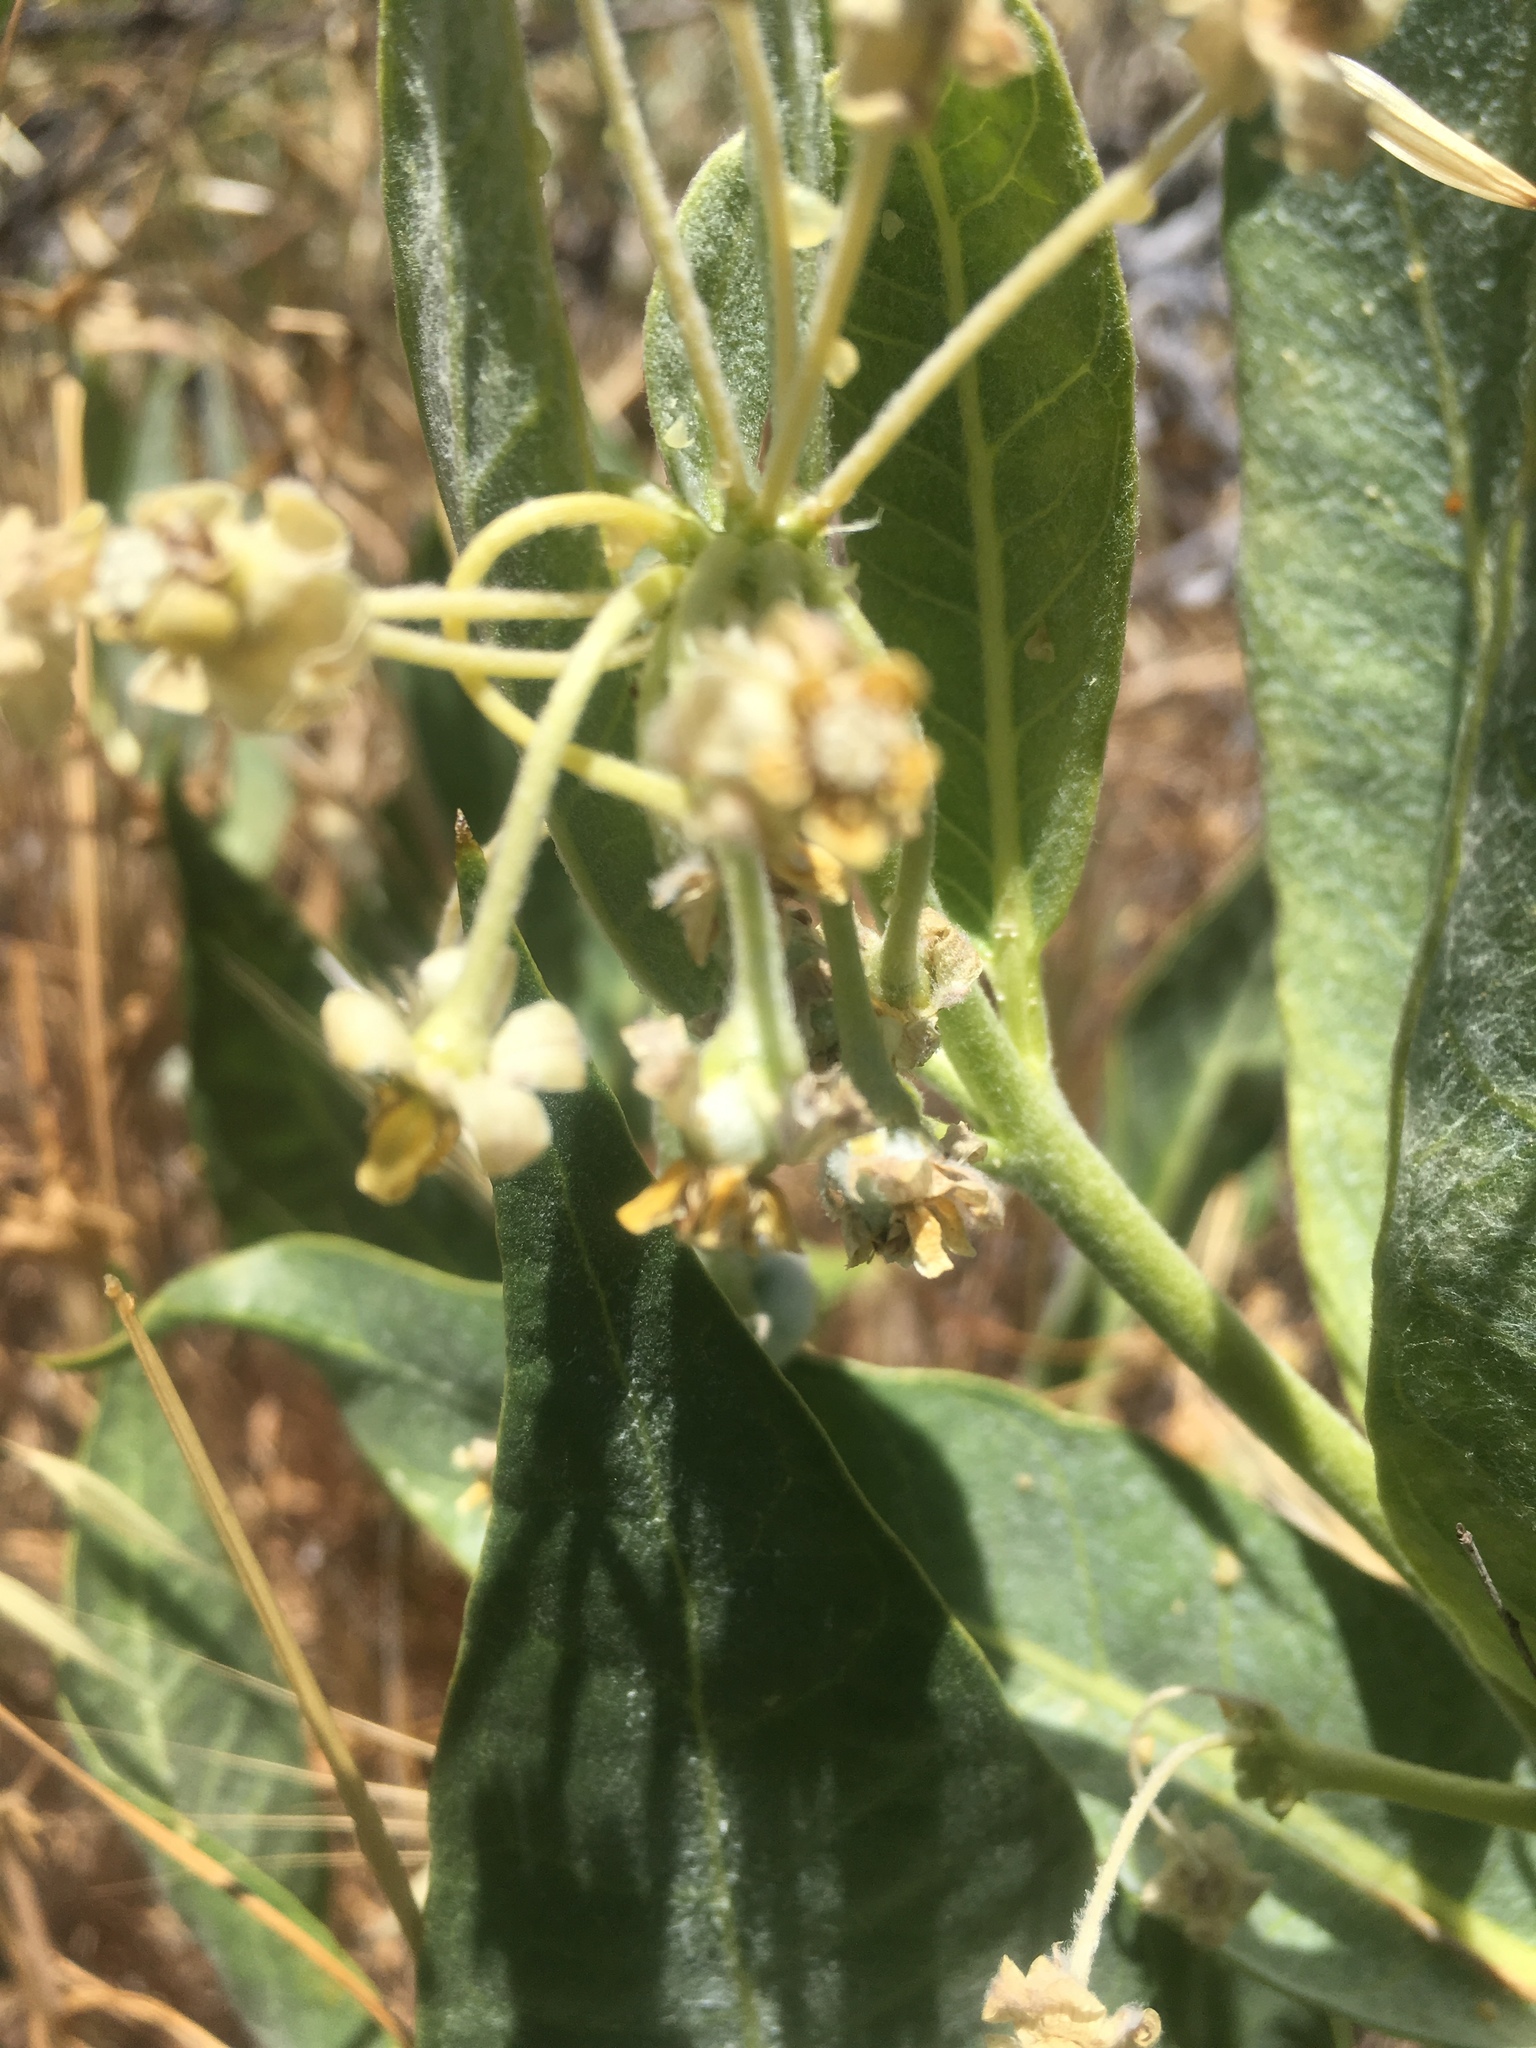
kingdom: Plantae
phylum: Tracheophyta
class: Magnoliopsida
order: Gentianales
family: Apocynaceae
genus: Asclepias
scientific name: Asclepias vestita
